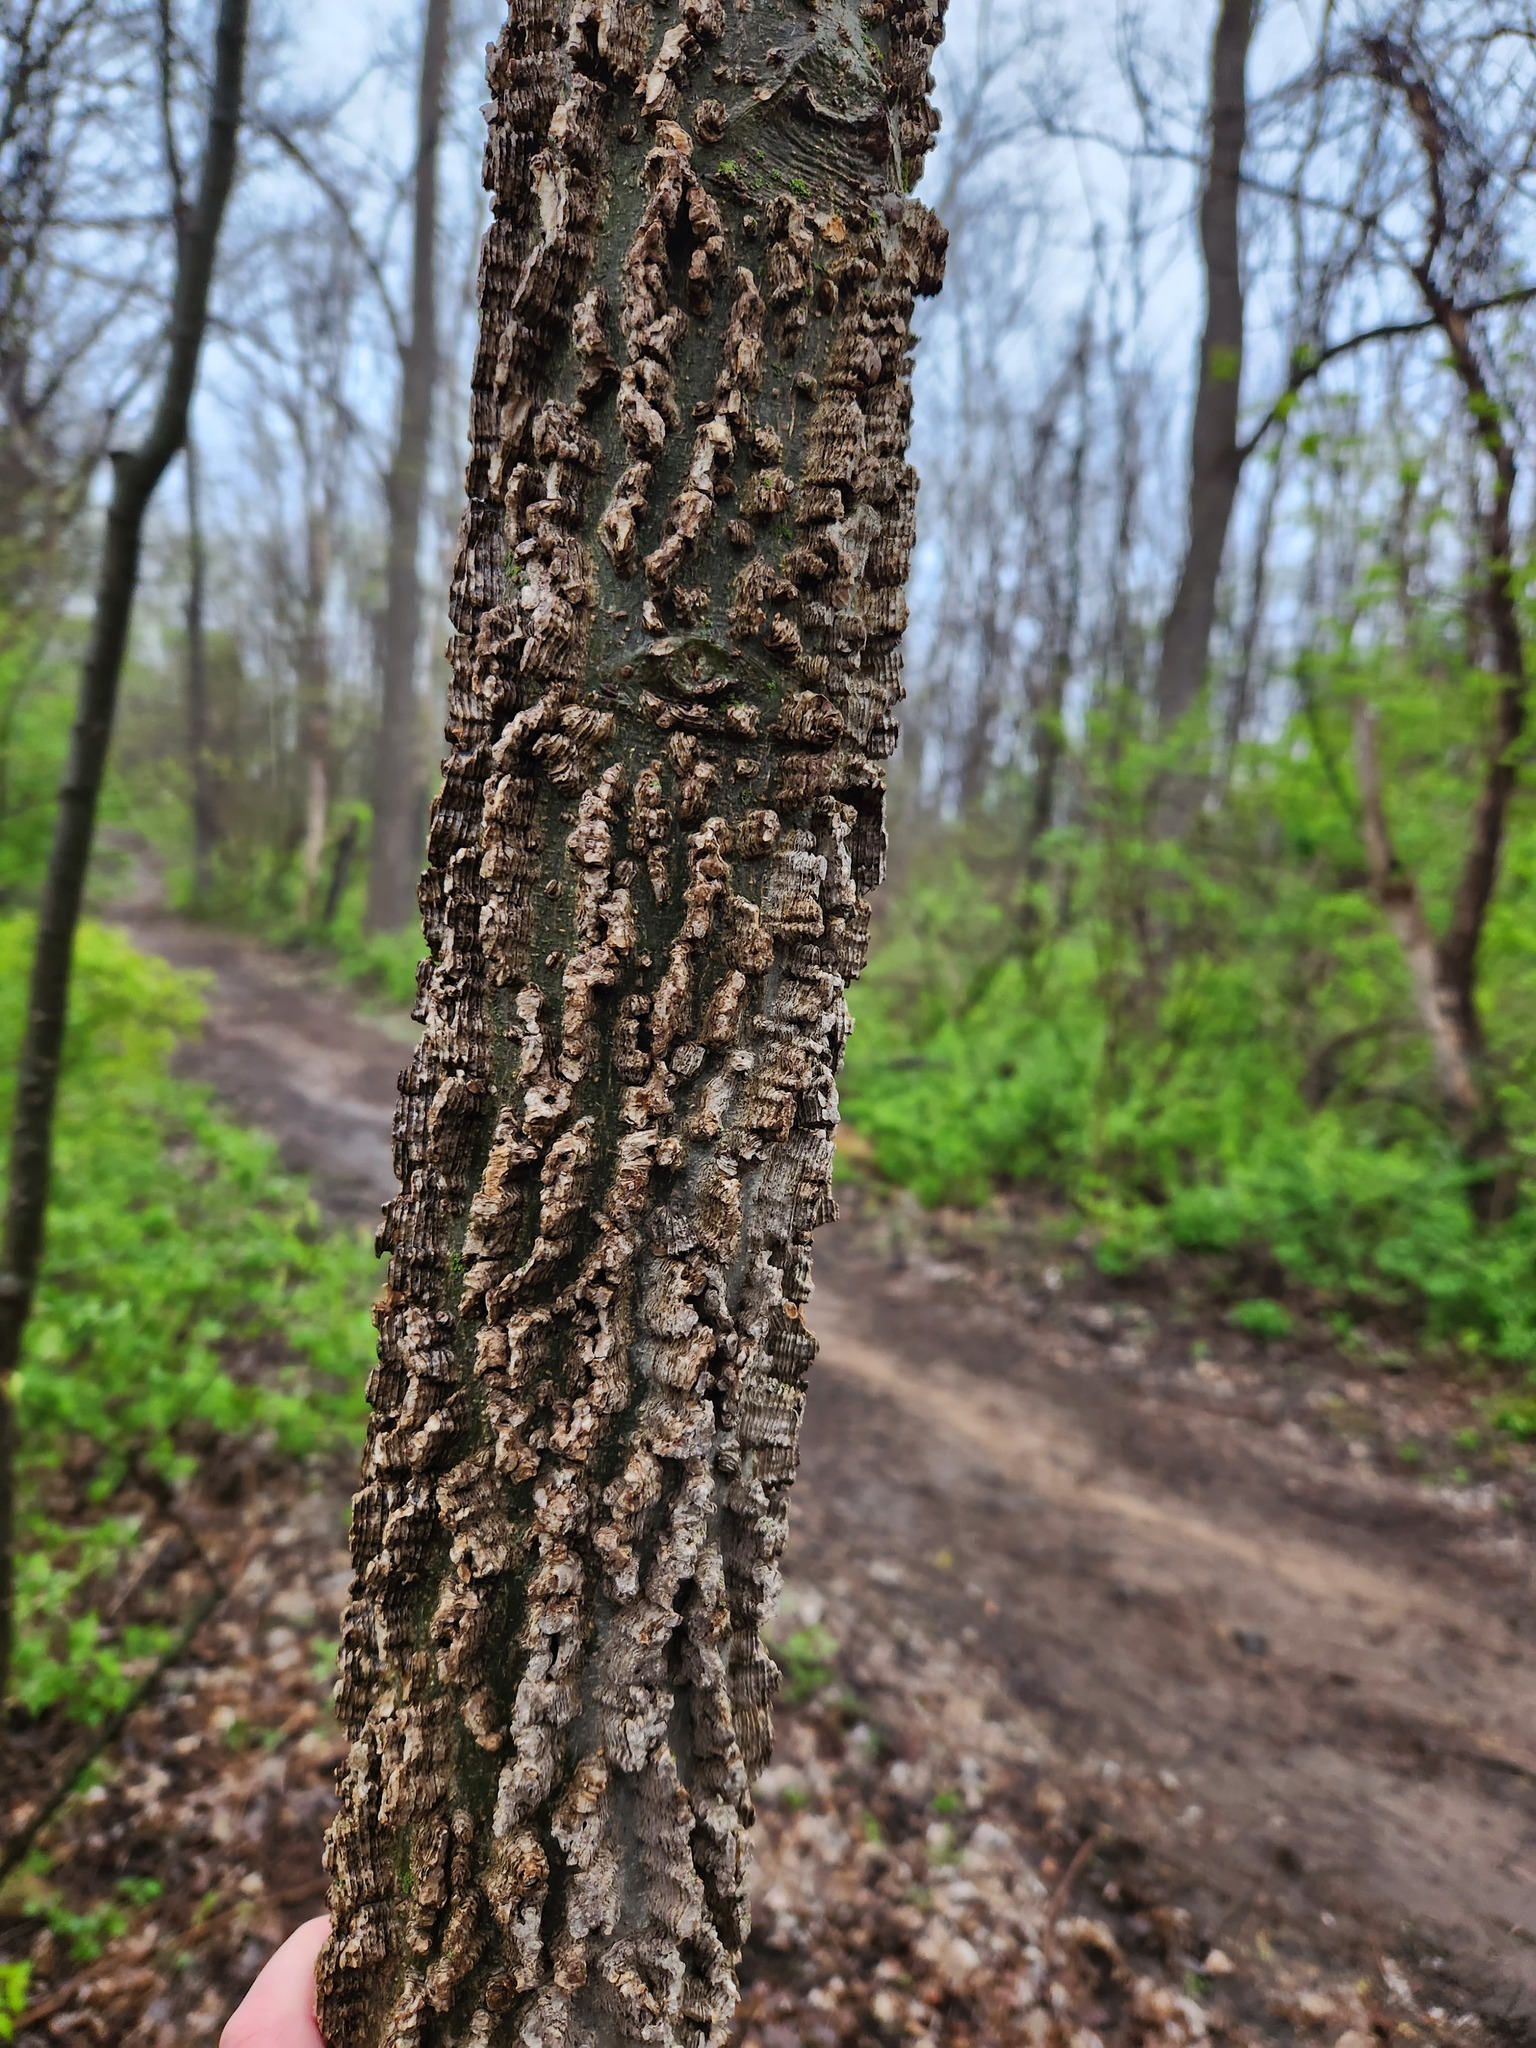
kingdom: Plantae
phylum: Tracheophyta
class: Magnoliopsida
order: Rosales
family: Cannabaceae
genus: Celtis
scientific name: Celtis occidentalis
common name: Common hackberry
